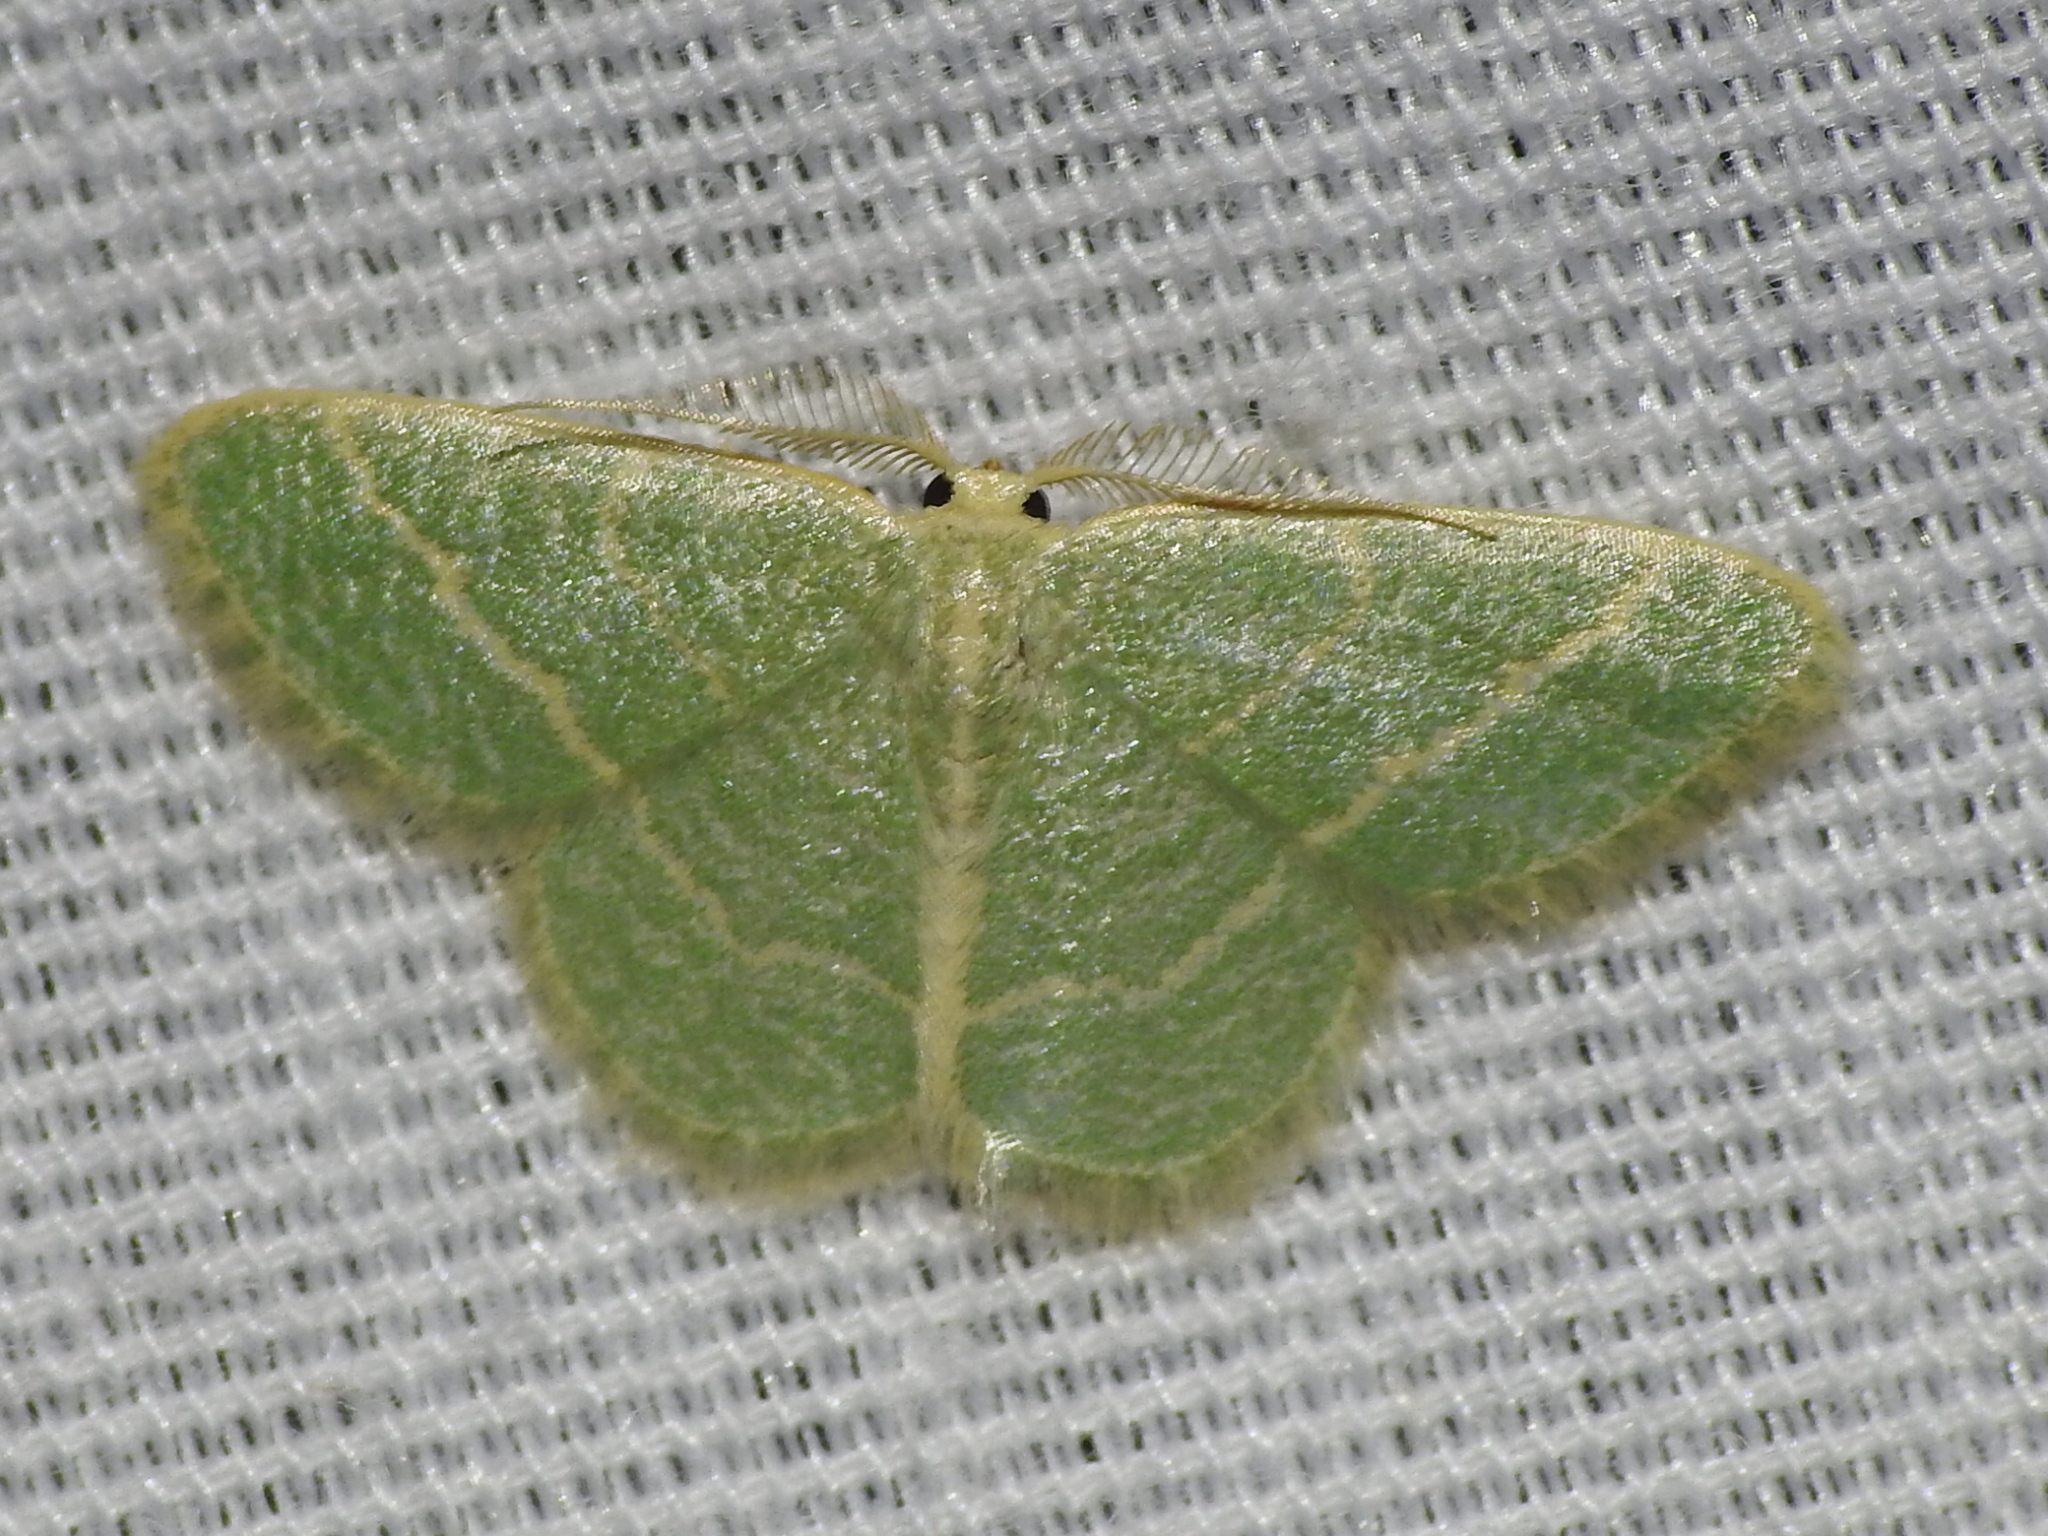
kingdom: Animalia
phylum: Arthropoda
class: Insecta
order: Lepidoptera
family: Geometridae
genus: Chlorochlamys
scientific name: Chlorochlamys chloroleucaria
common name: Blackberry looper
